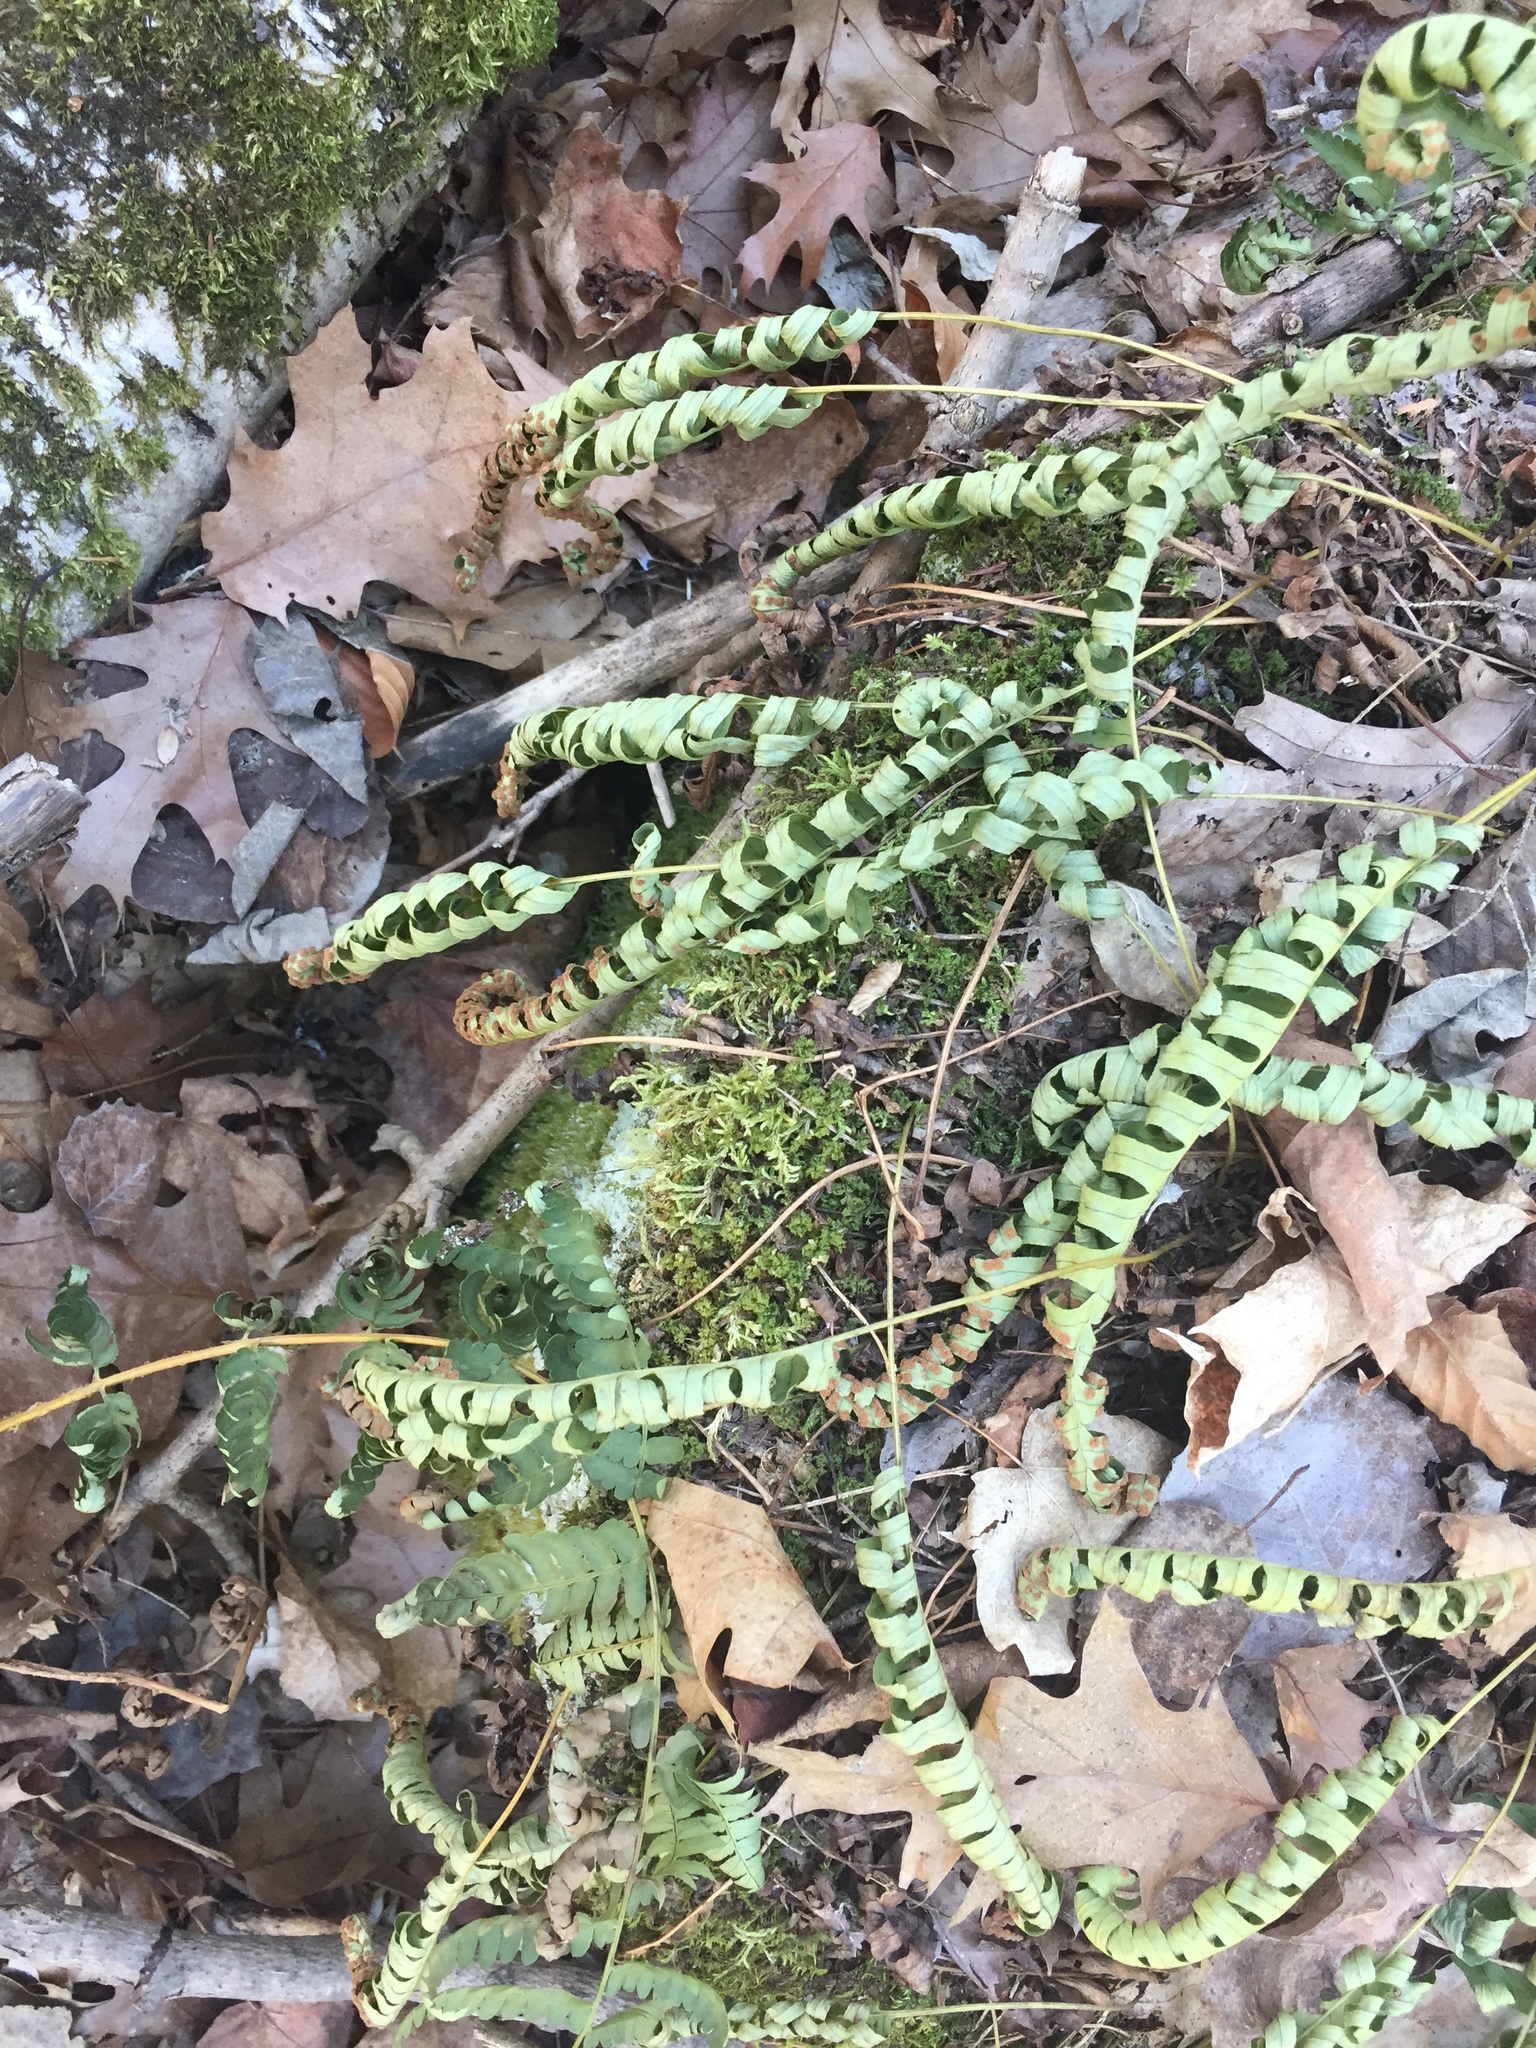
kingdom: Plantae
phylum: Tracheophyta
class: Polypodiopsida
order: Polypodiales
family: Polypodiaceae
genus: Polypodium
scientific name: Polypodium virginianum
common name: American wall fern
